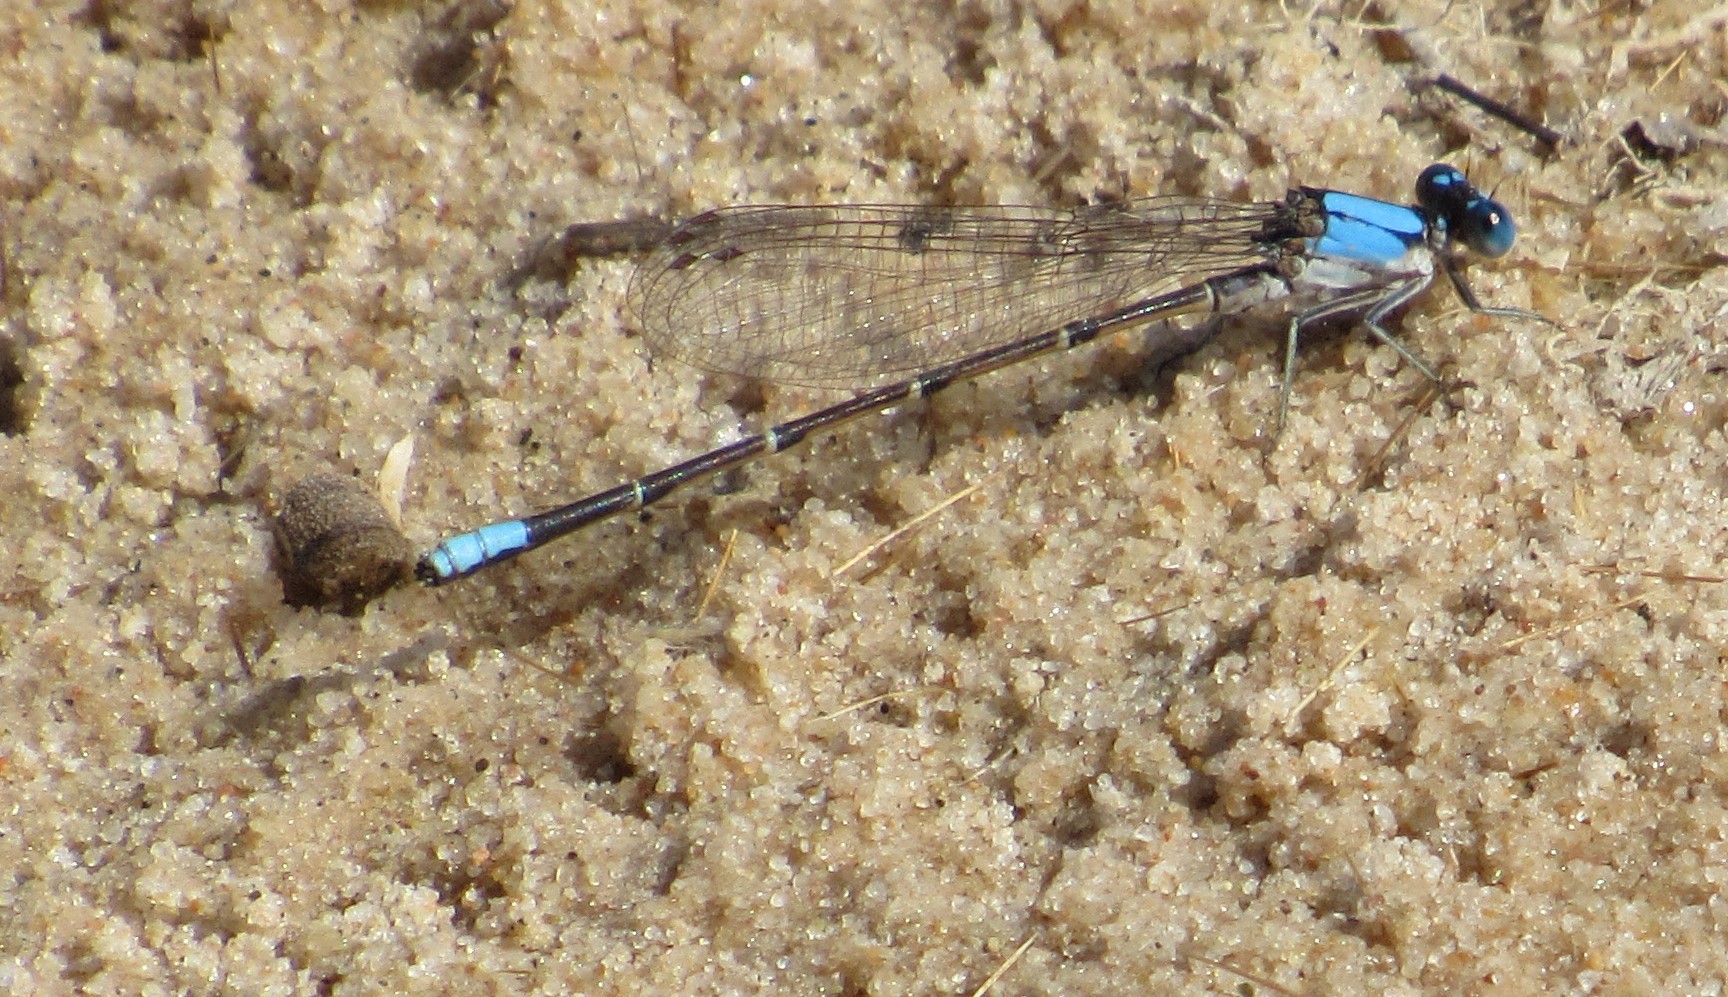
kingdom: Animalia
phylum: Arthropoda
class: Insecta
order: Odonata
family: Coenagrionidae
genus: Argia
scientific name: Argia apicalis
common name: Blue-fronted dancer
